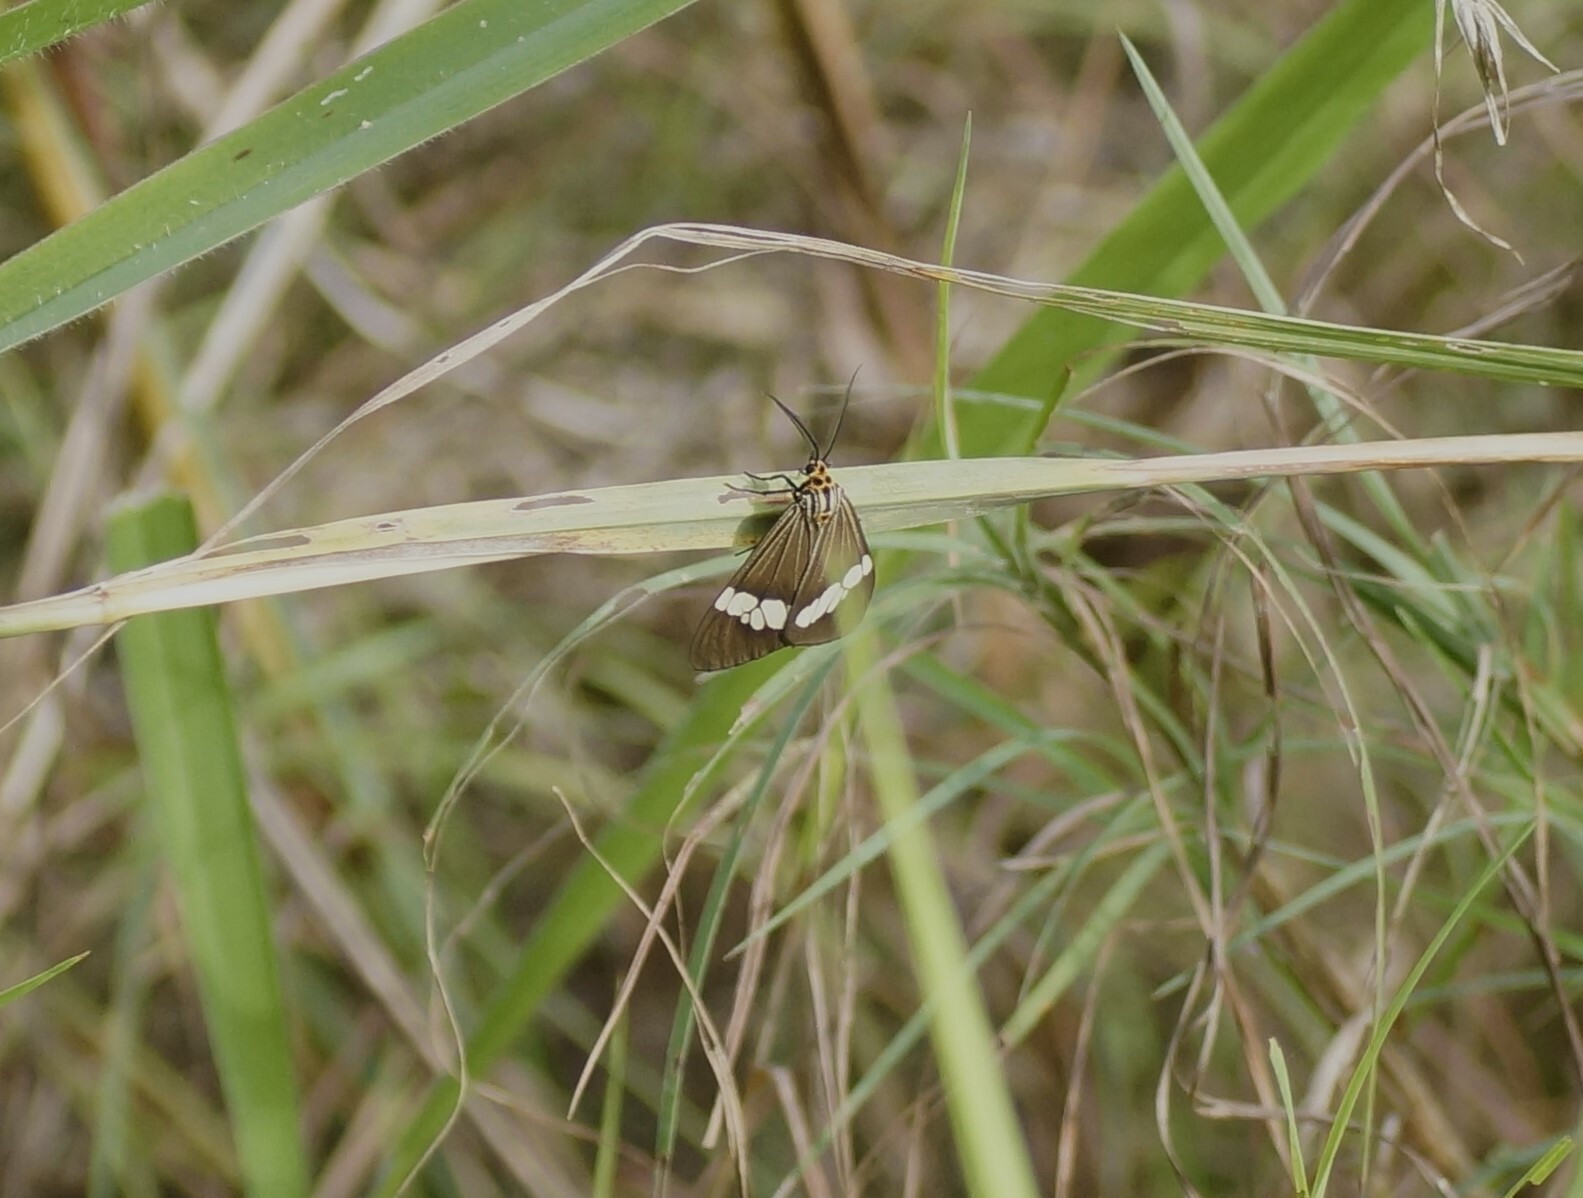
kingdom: Animalia
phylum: Arthropoda
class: Insecta
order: Lepidoptera
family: Erebidae
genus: Nyctemera
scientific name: Nyctemera baulus
